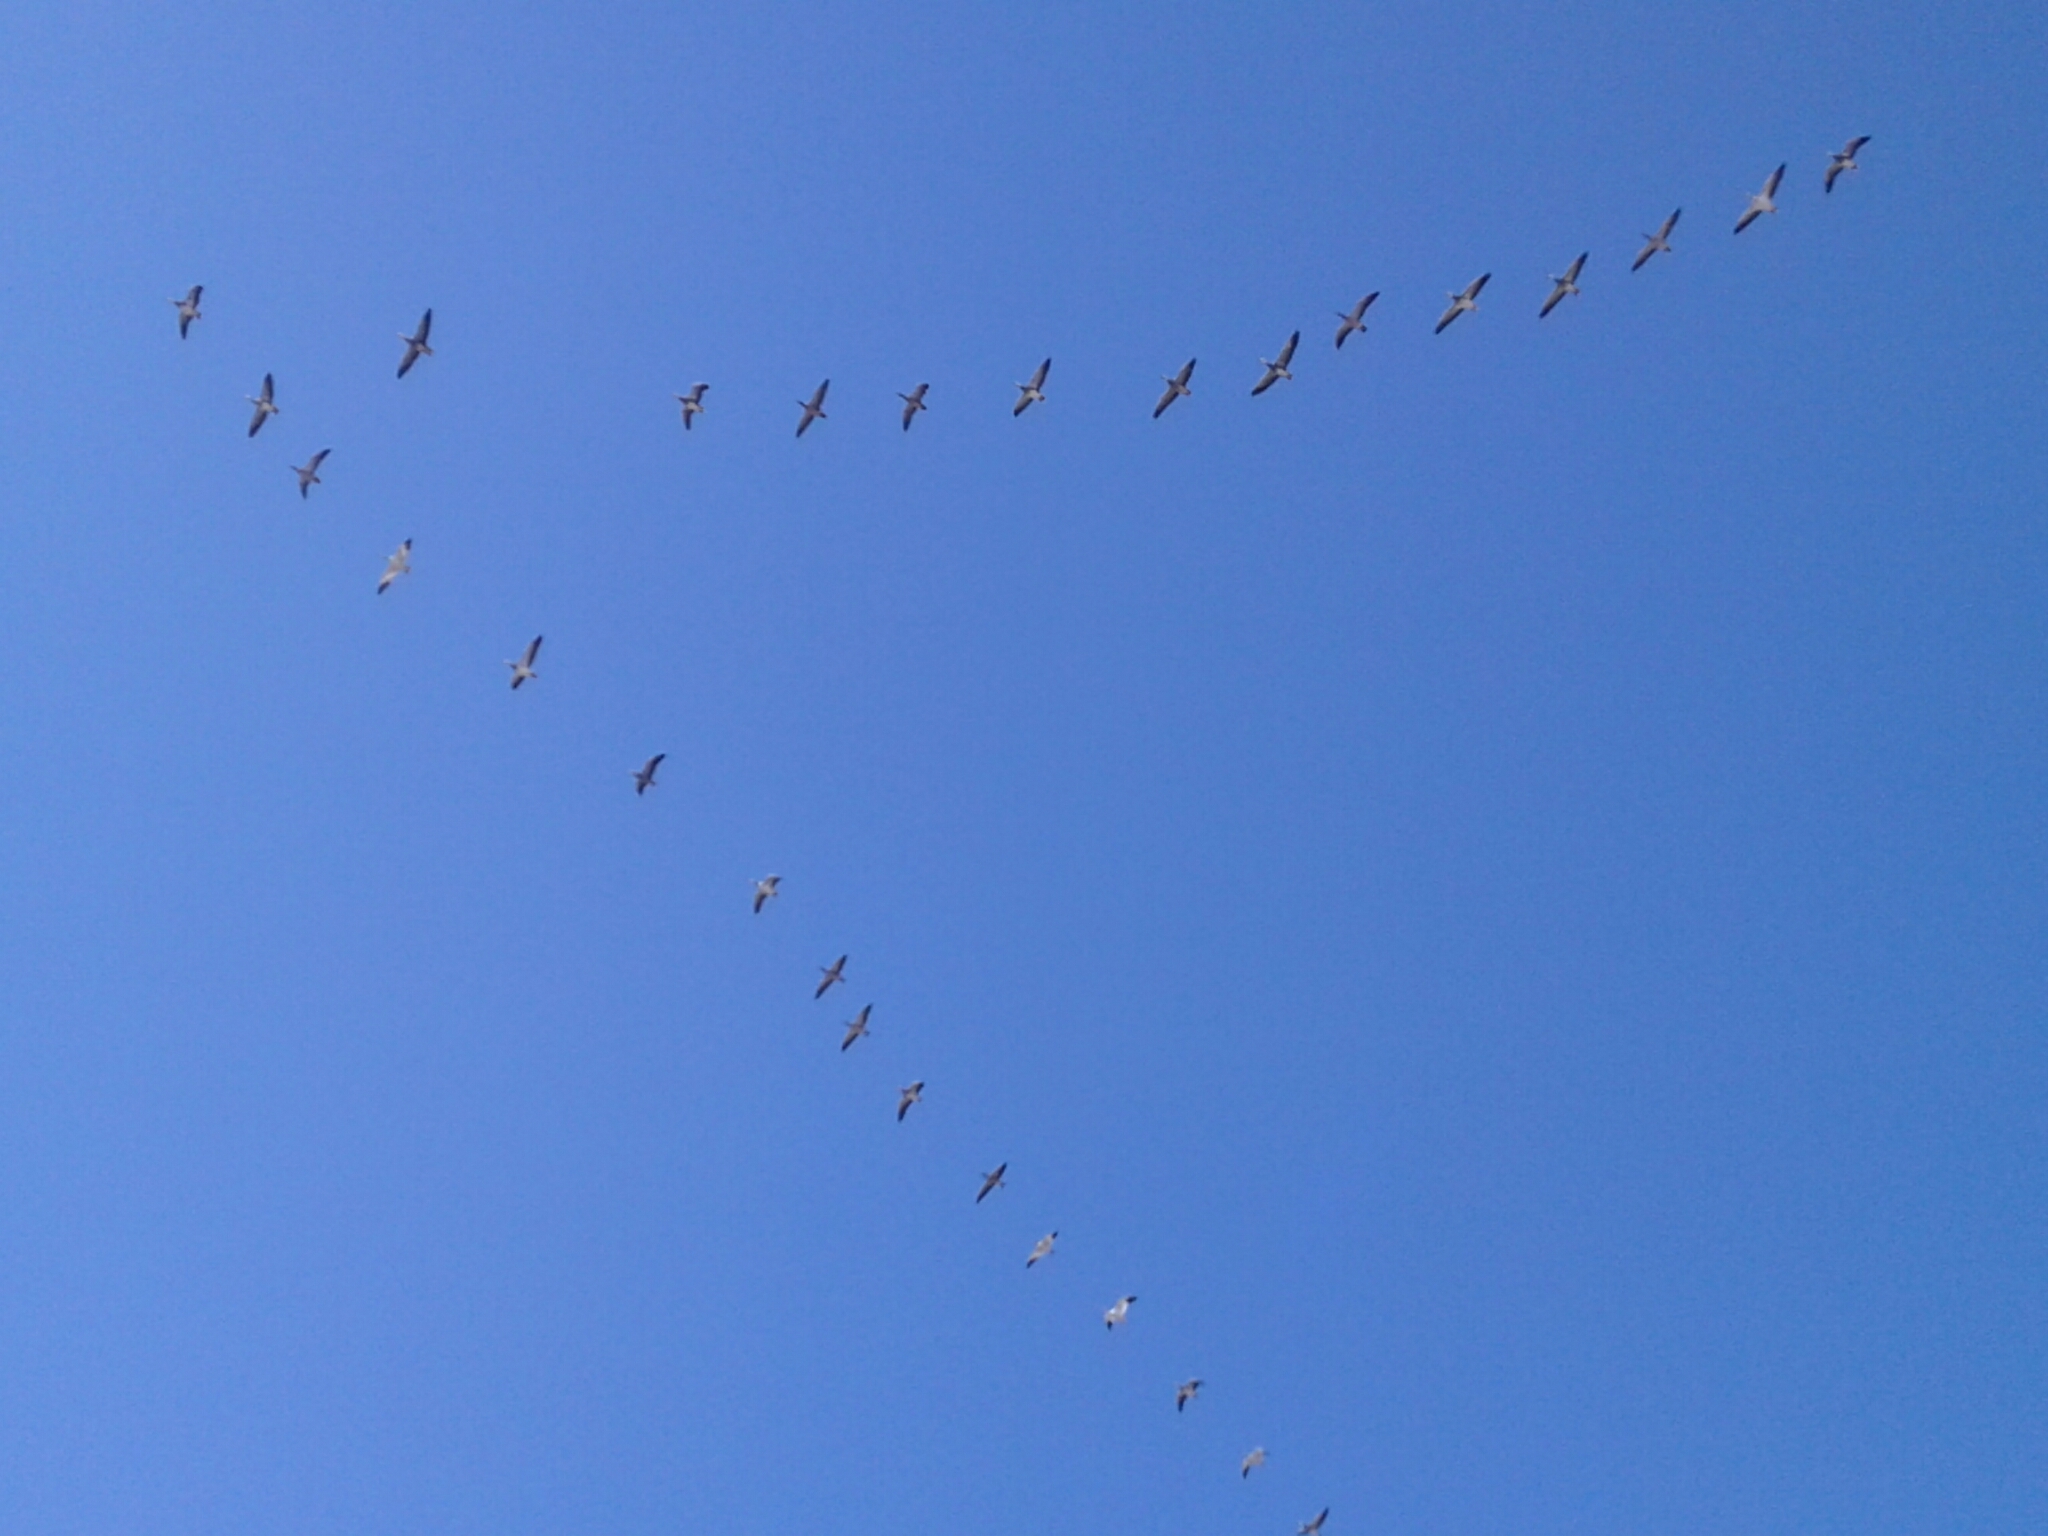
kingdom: Animalia
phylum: Chordata
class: Aves
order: Anseriformes
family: Anatidae
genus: Anser
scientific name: Anser caerulescens
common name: Snow goose
